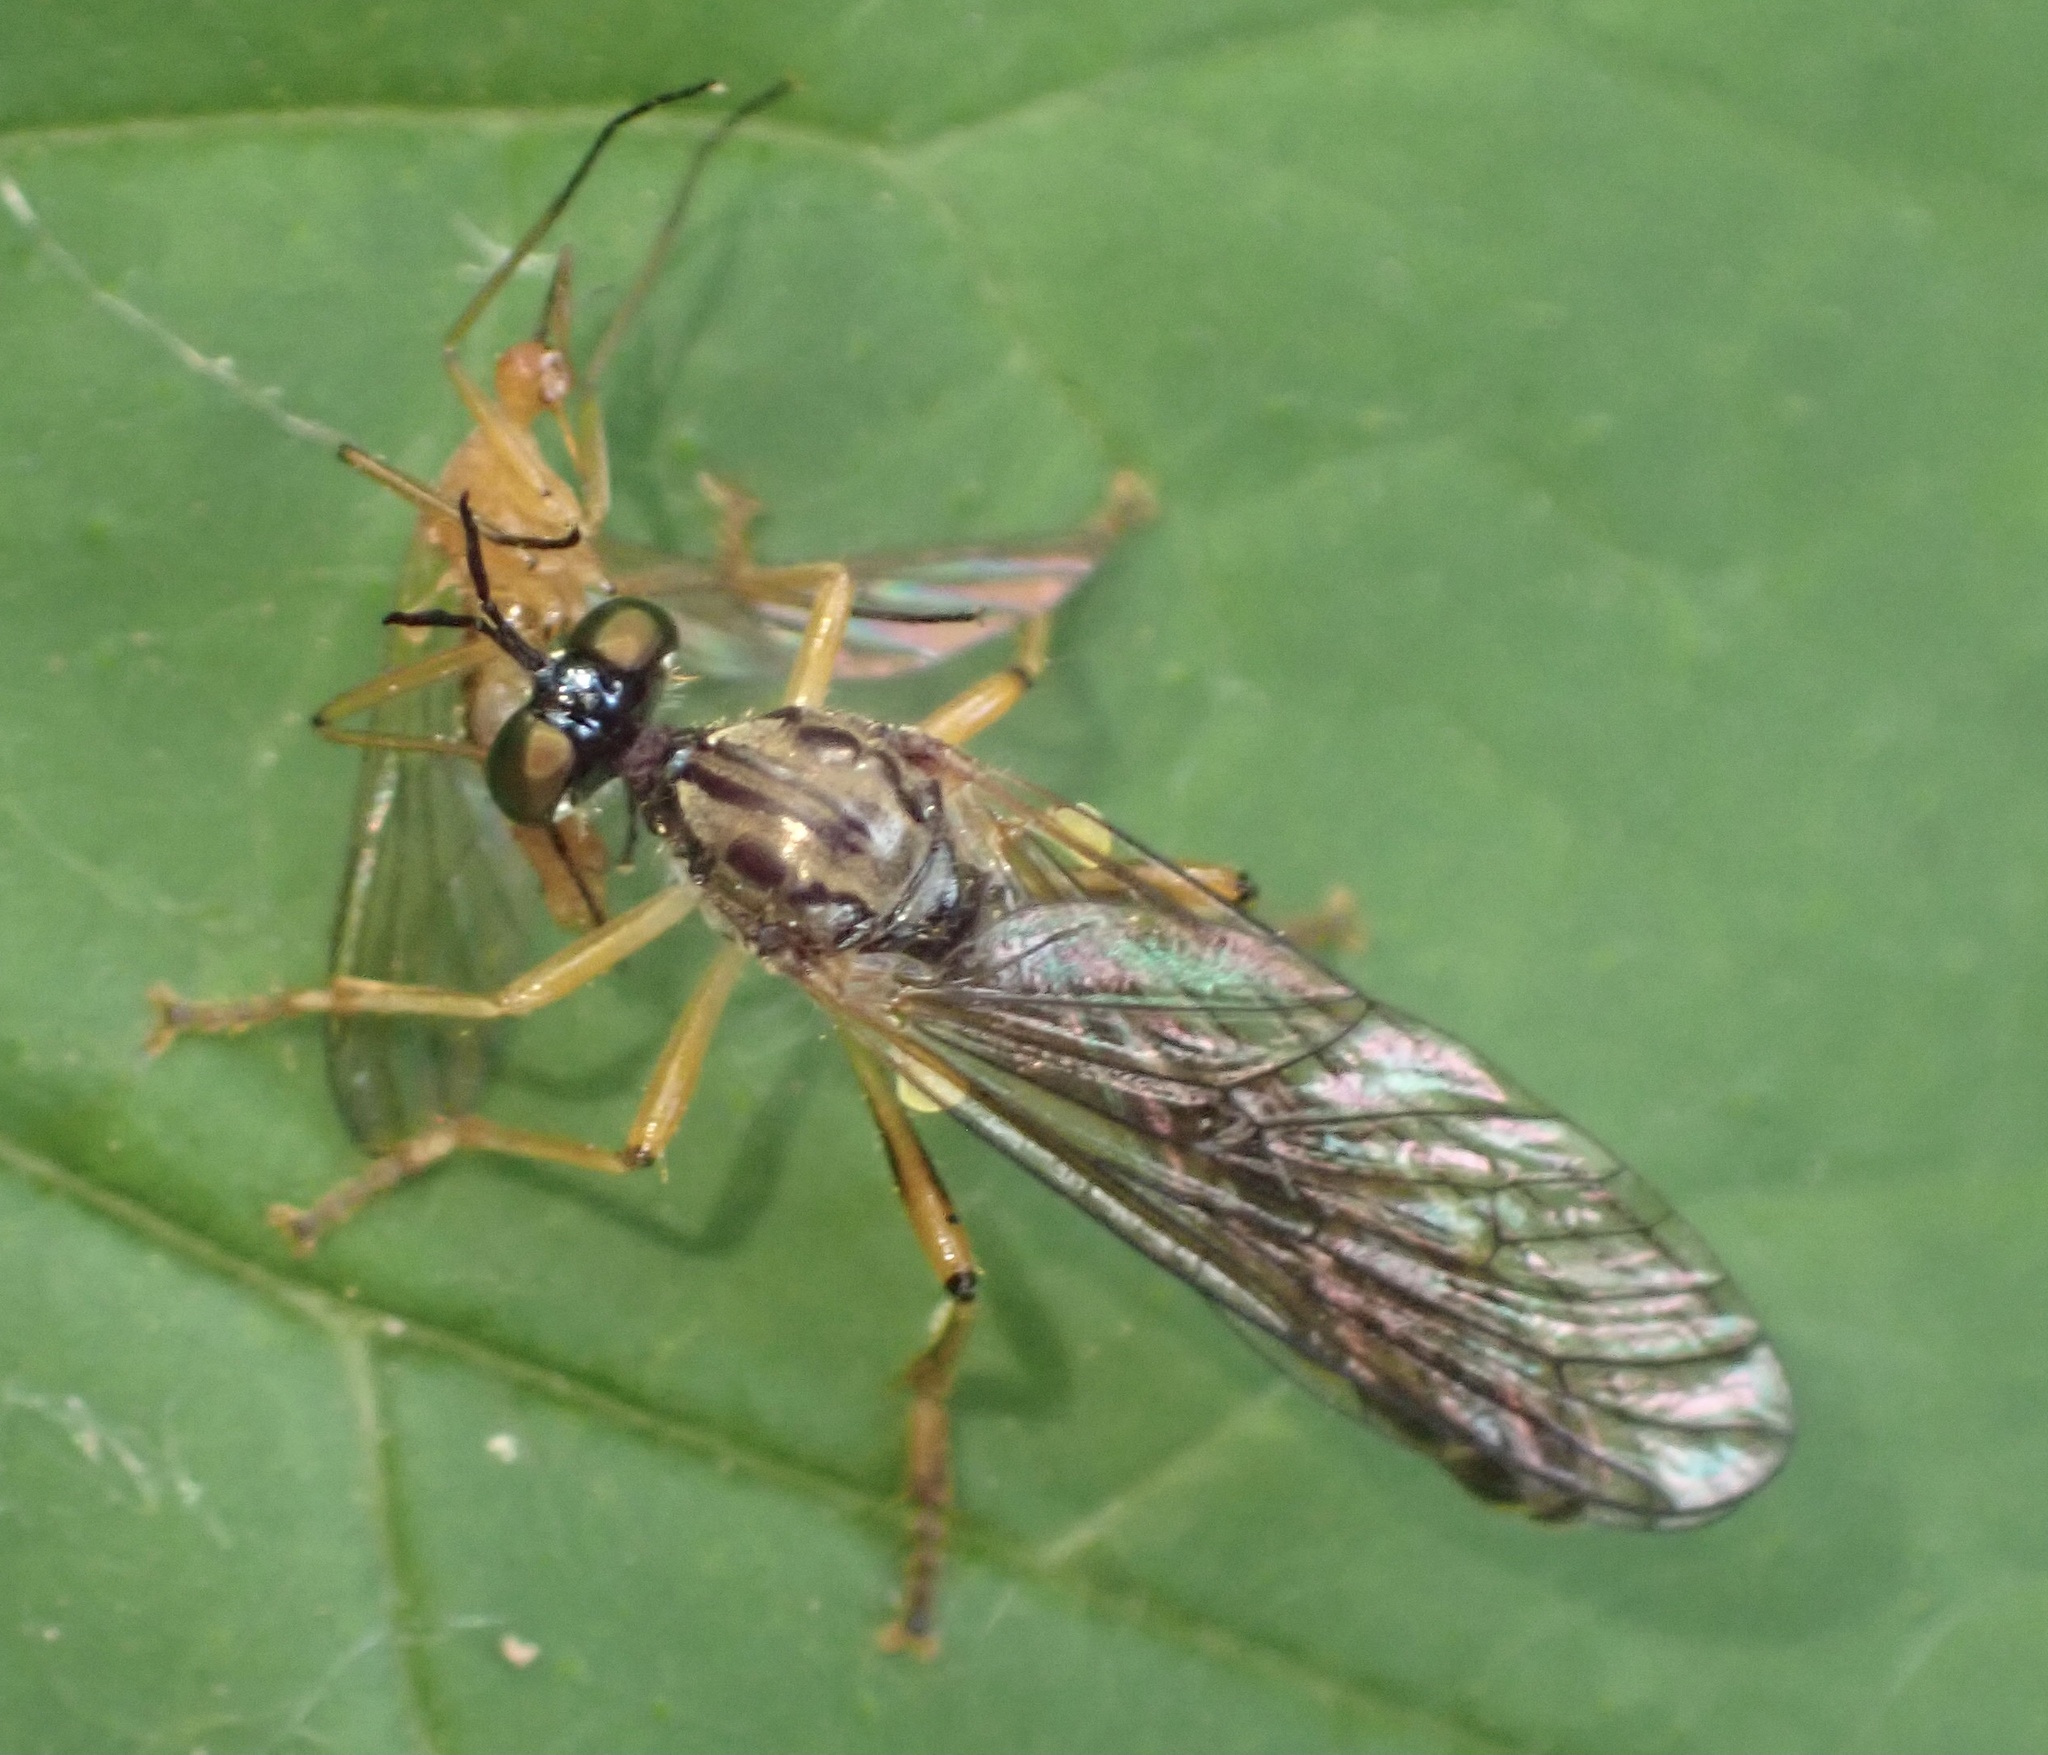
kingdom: Animalia
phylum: Arthropoda
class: Insecta
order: Diptera
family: Asilidae
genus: Dioctria
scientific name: Dioctria linearis
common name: Small yellow-legged robberfly
